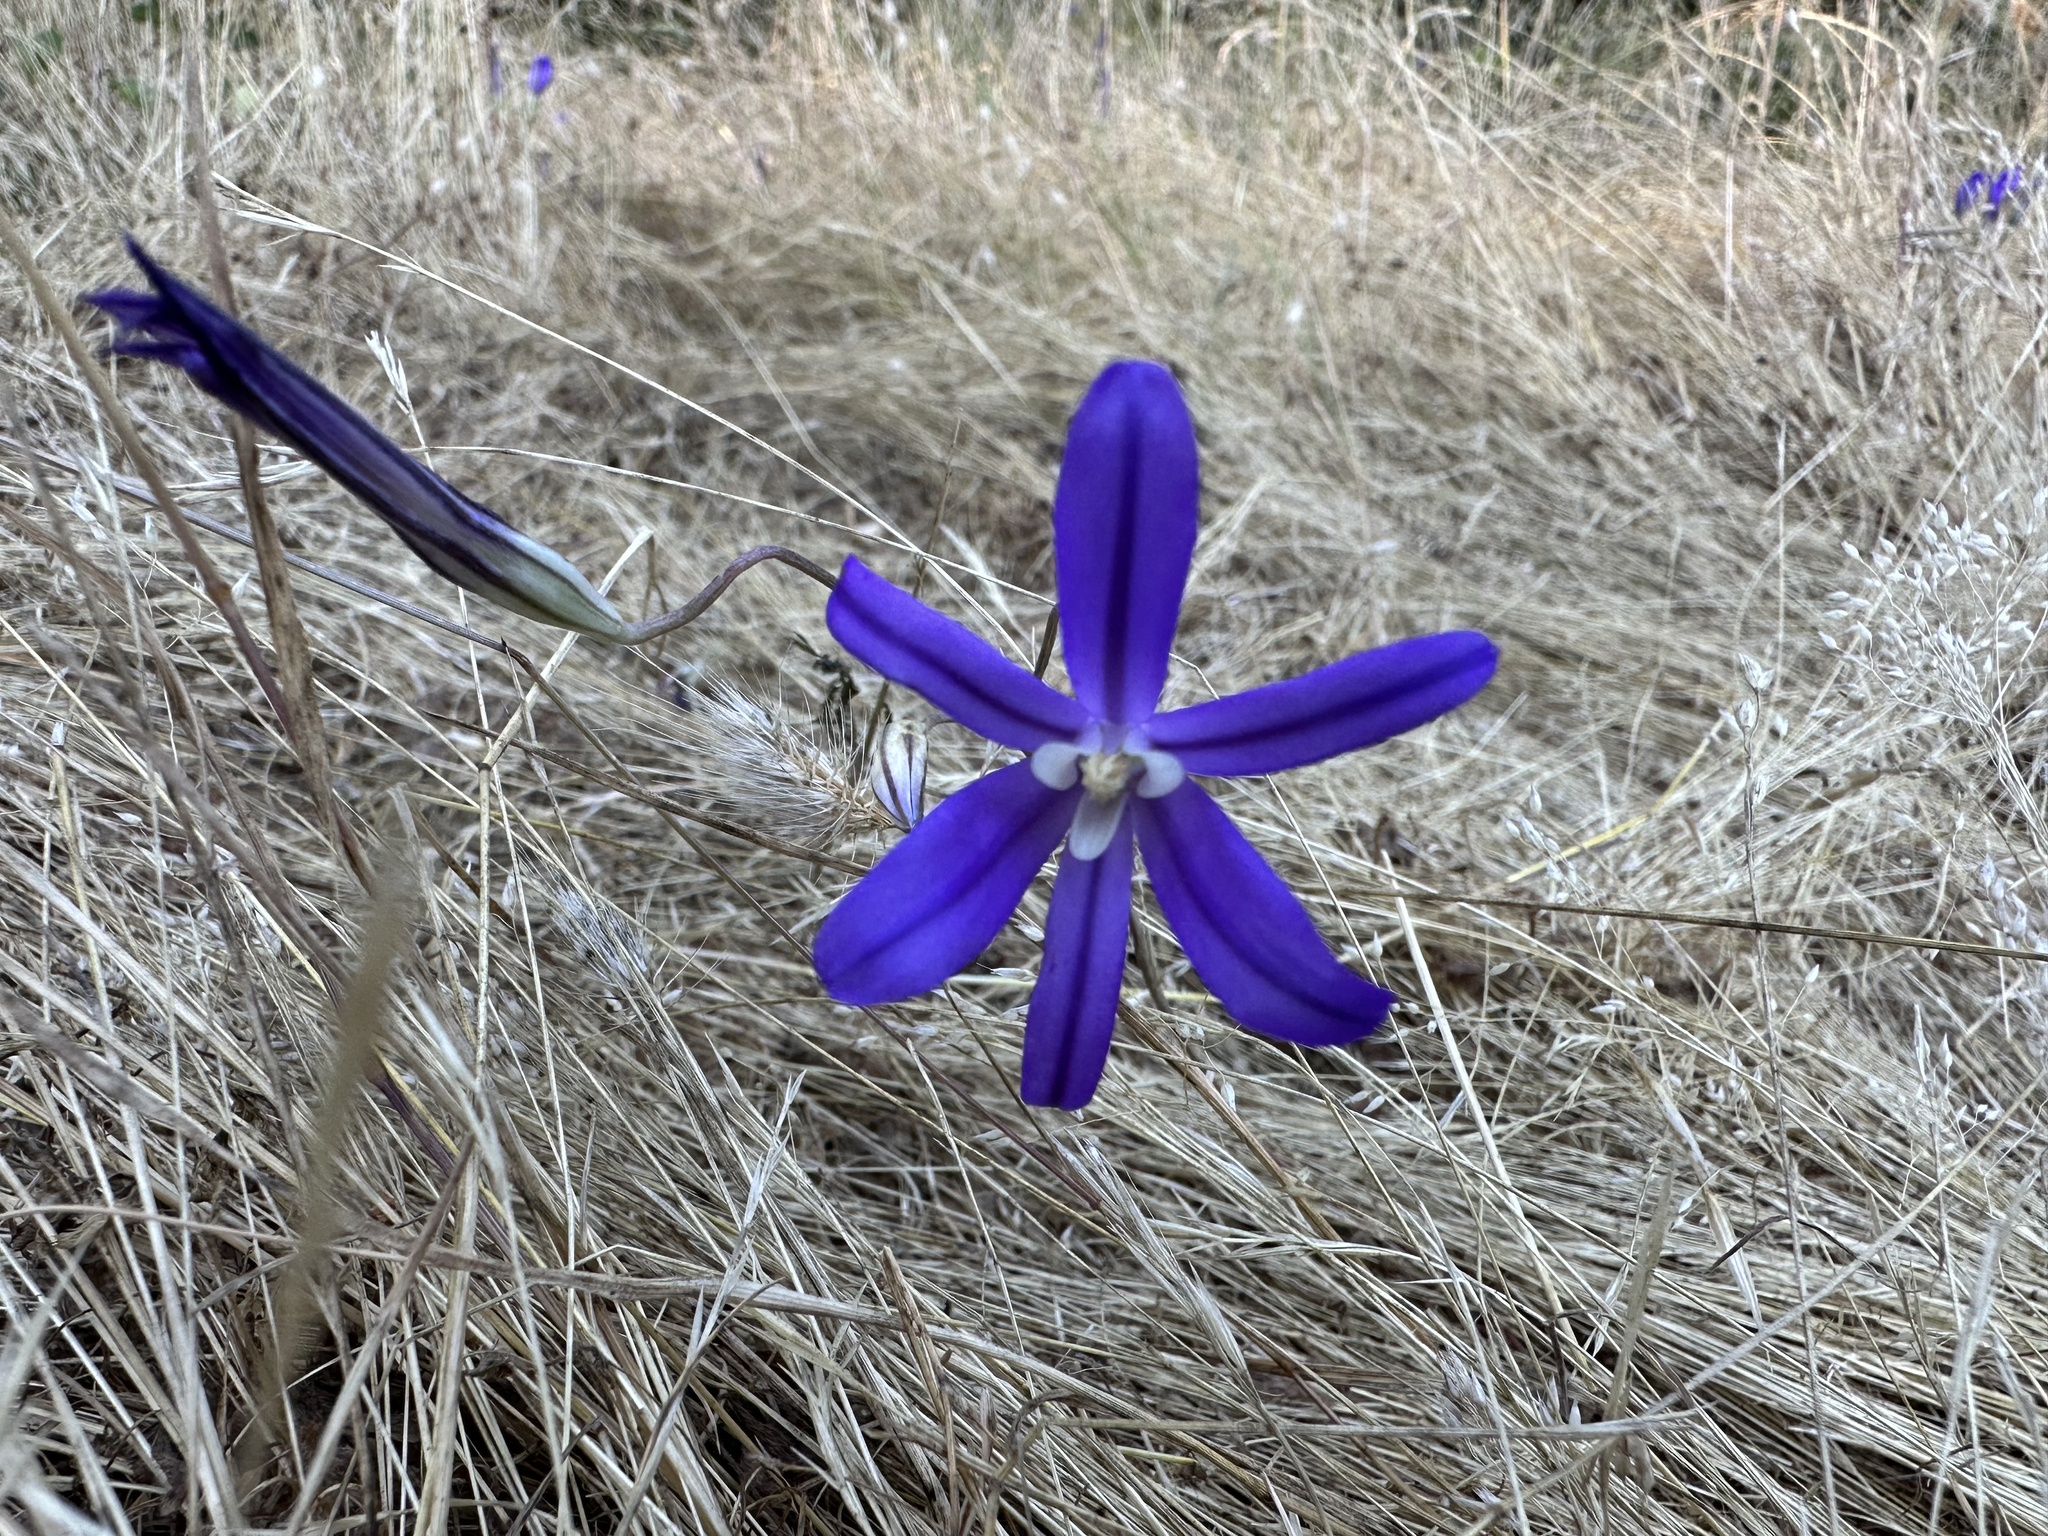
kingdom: Plantae
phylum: Tracheophyta
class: Liliopsida
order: Asparagales
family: Asparagaceae
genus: Brodiaea
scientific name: Brodiaea coronaria
